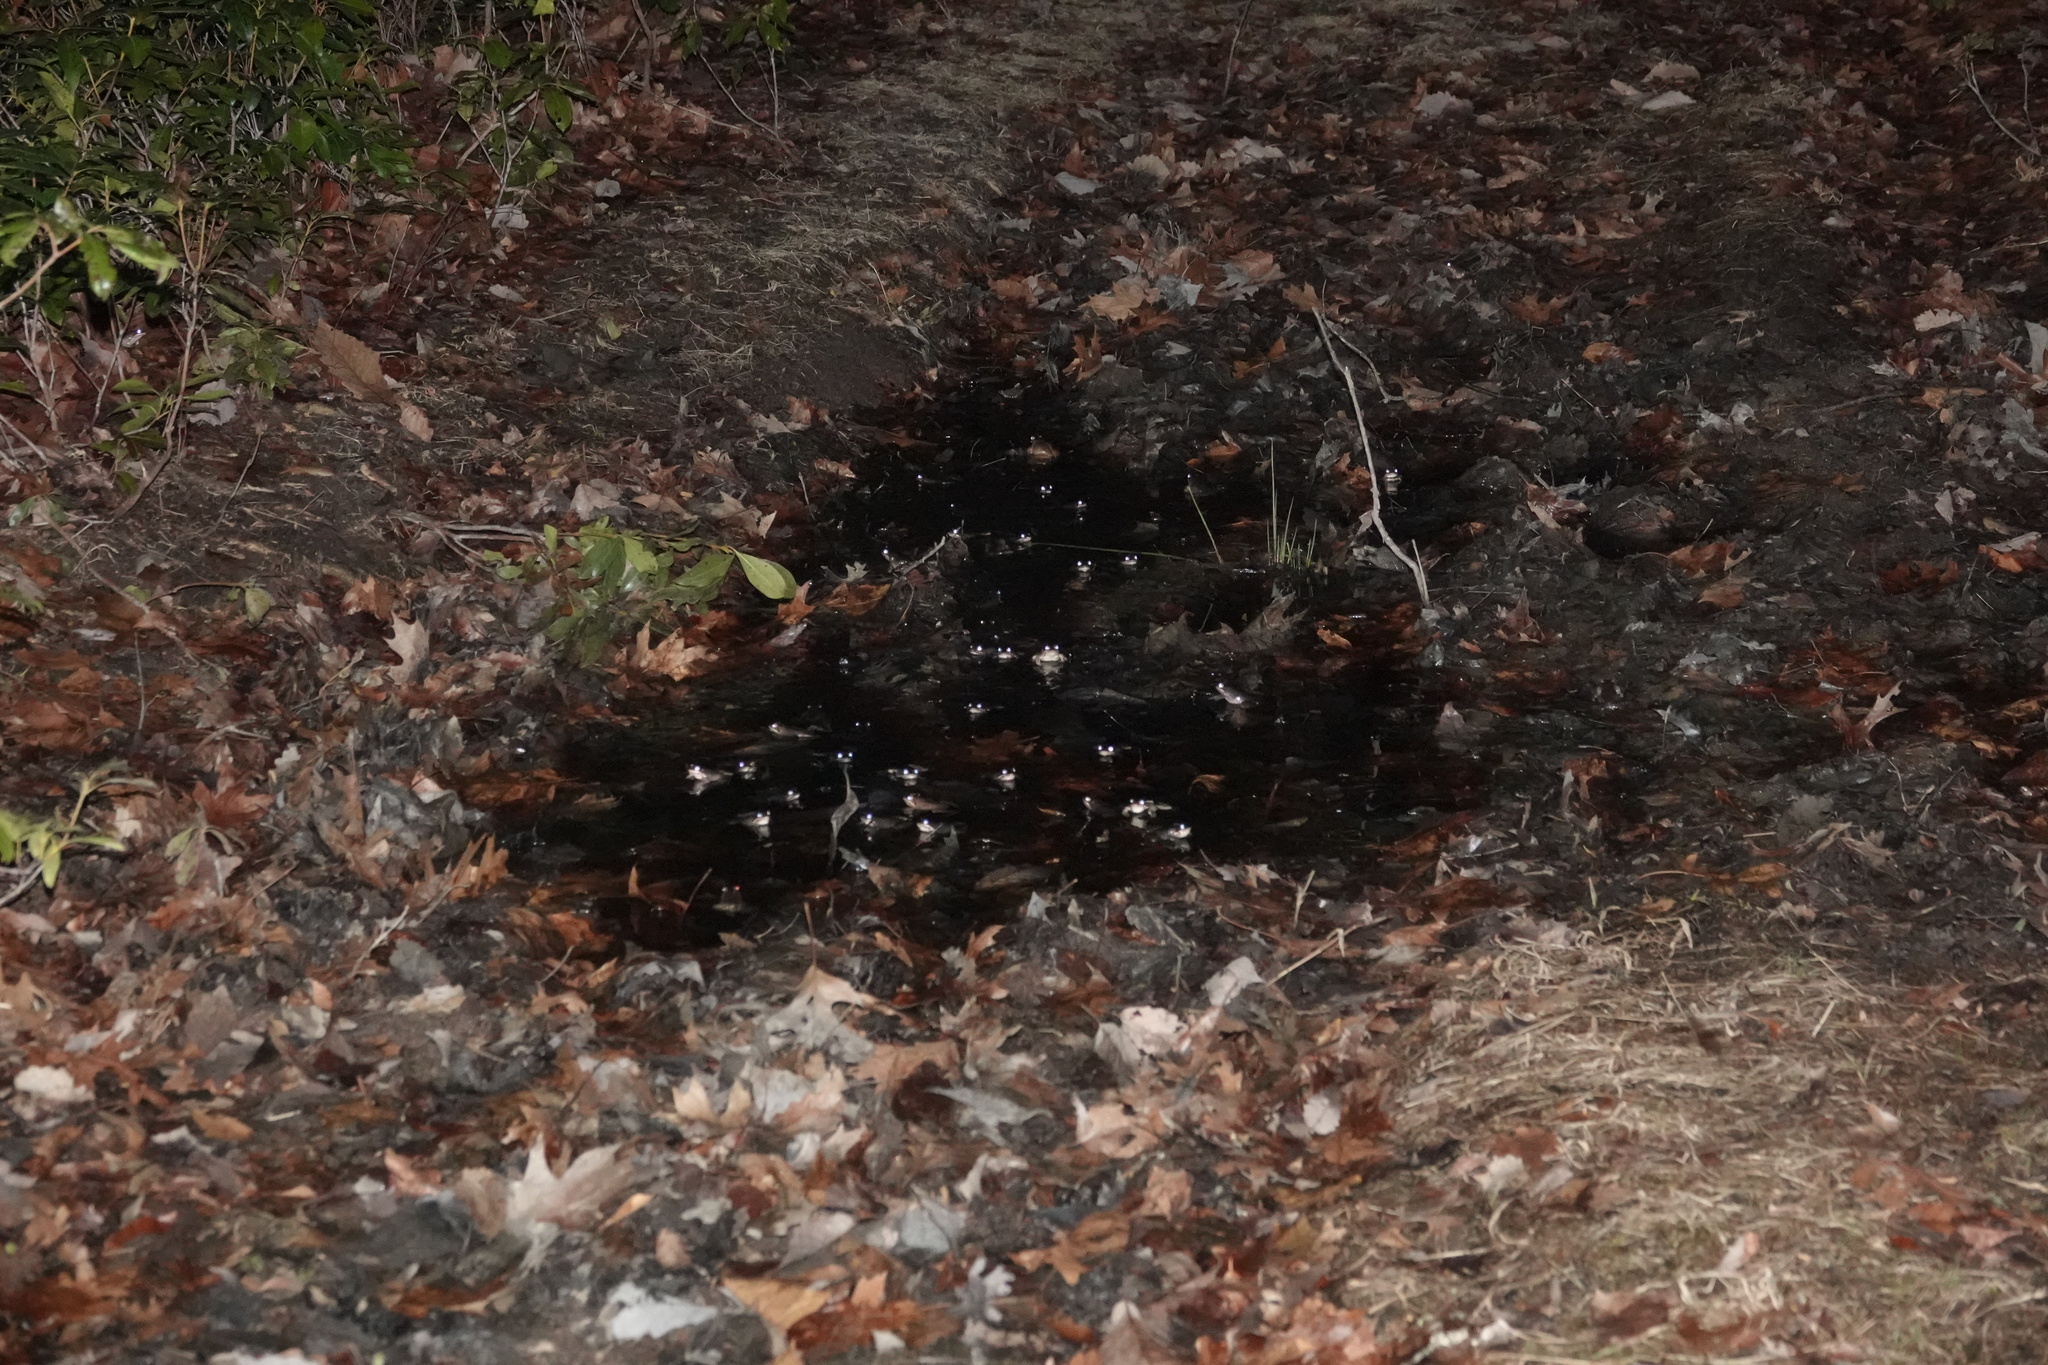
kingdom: Animalia
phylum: Chordata
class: Amphibia
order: Anura
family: Ranidae
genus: Lithobates
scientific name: Lithobates sylvaticus
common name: Wood frog
